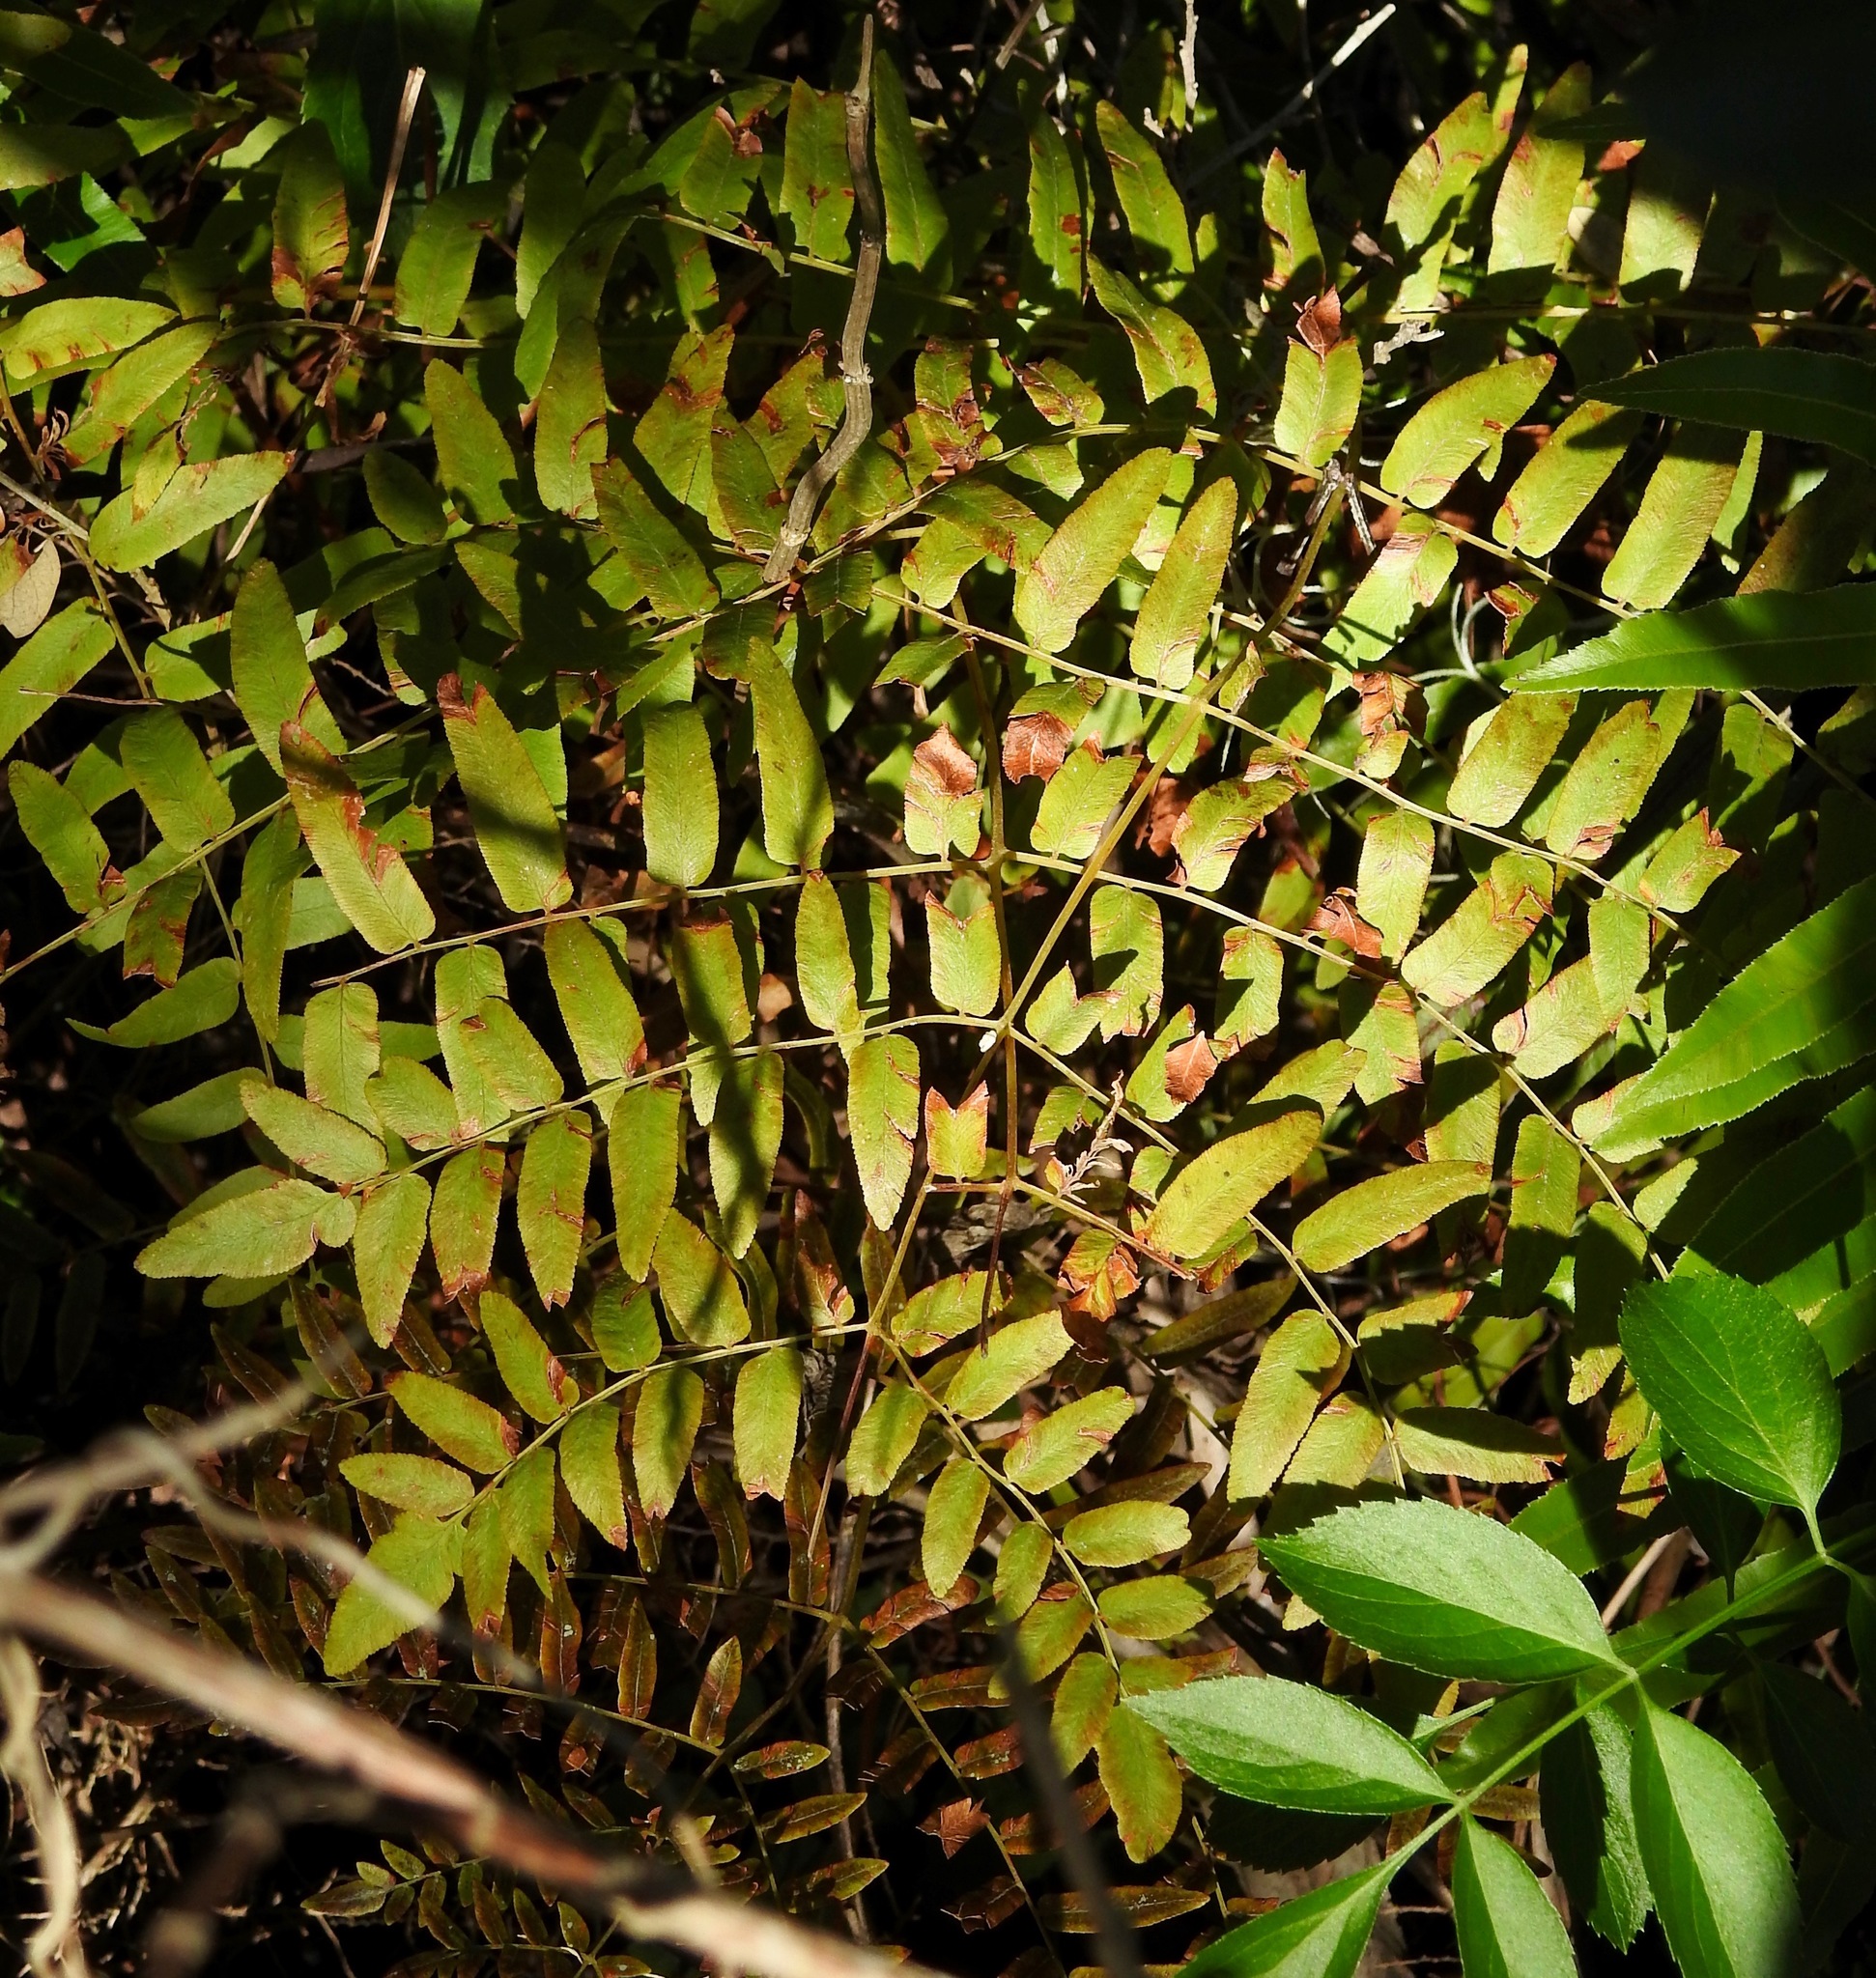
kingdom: Plantae
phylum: Tracheophyta
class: Polypodiopsida
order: Osmundales
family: Osmundaceae
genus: Osmunda
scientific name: Osmunda spectabilis
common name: American royal fern
